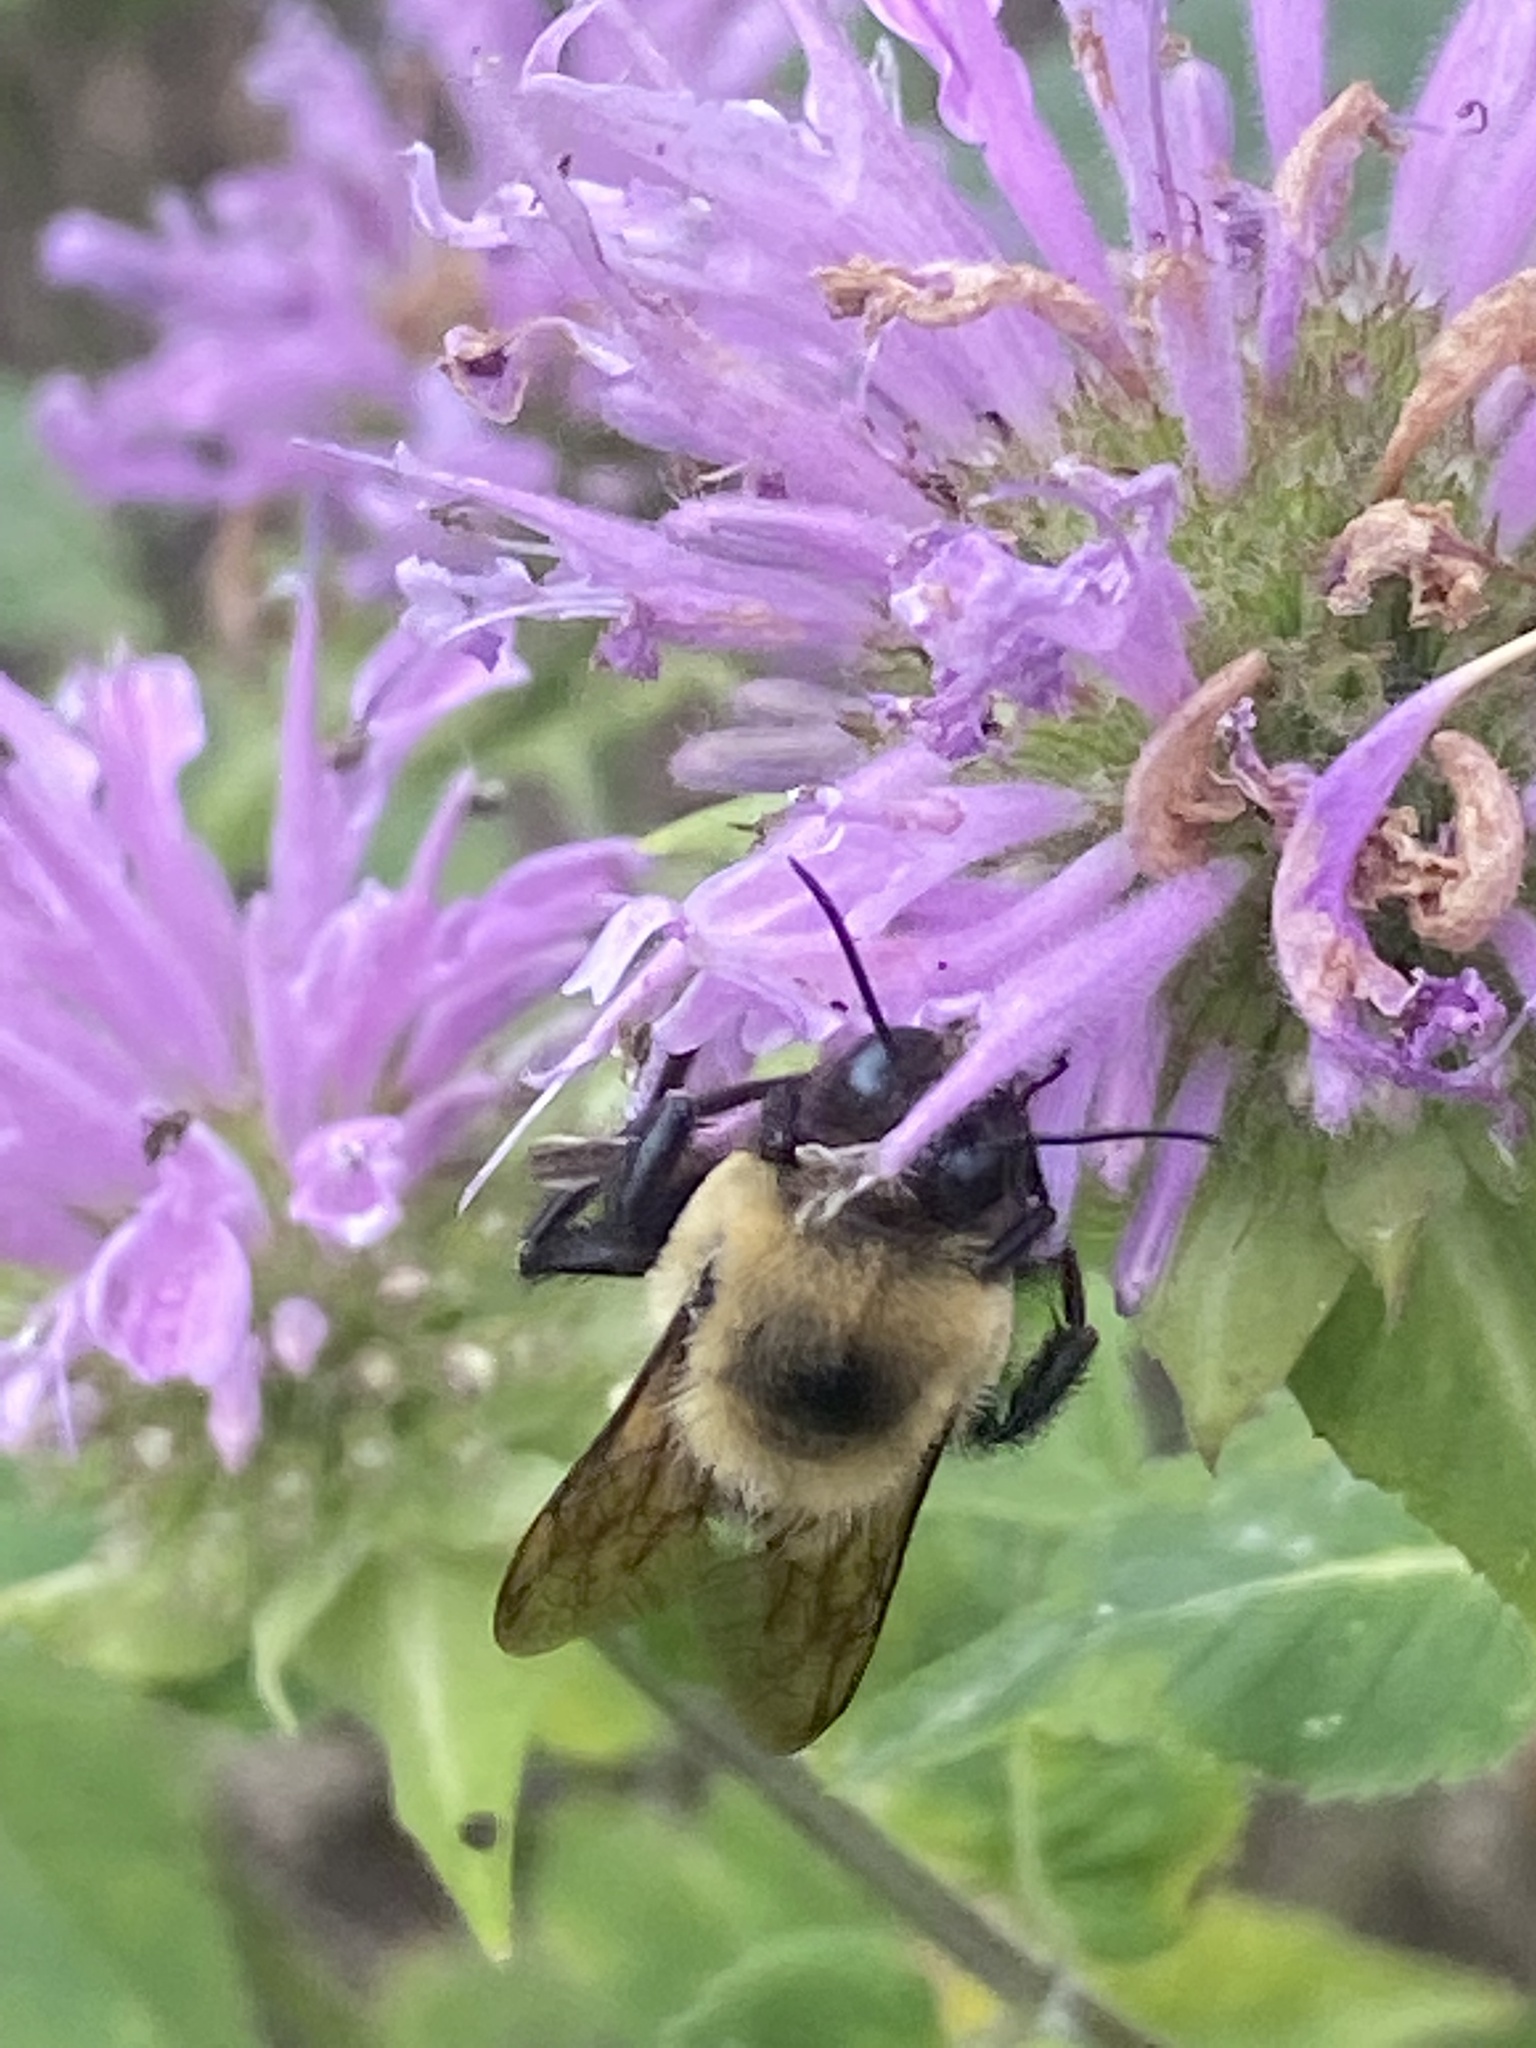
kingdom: Animalia
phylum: Arthropoda
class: Insecta
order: Hymenoptera
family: Apidae
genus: Bombus
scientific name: Bombus griseocollis
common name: Brown-belted bumble bee
